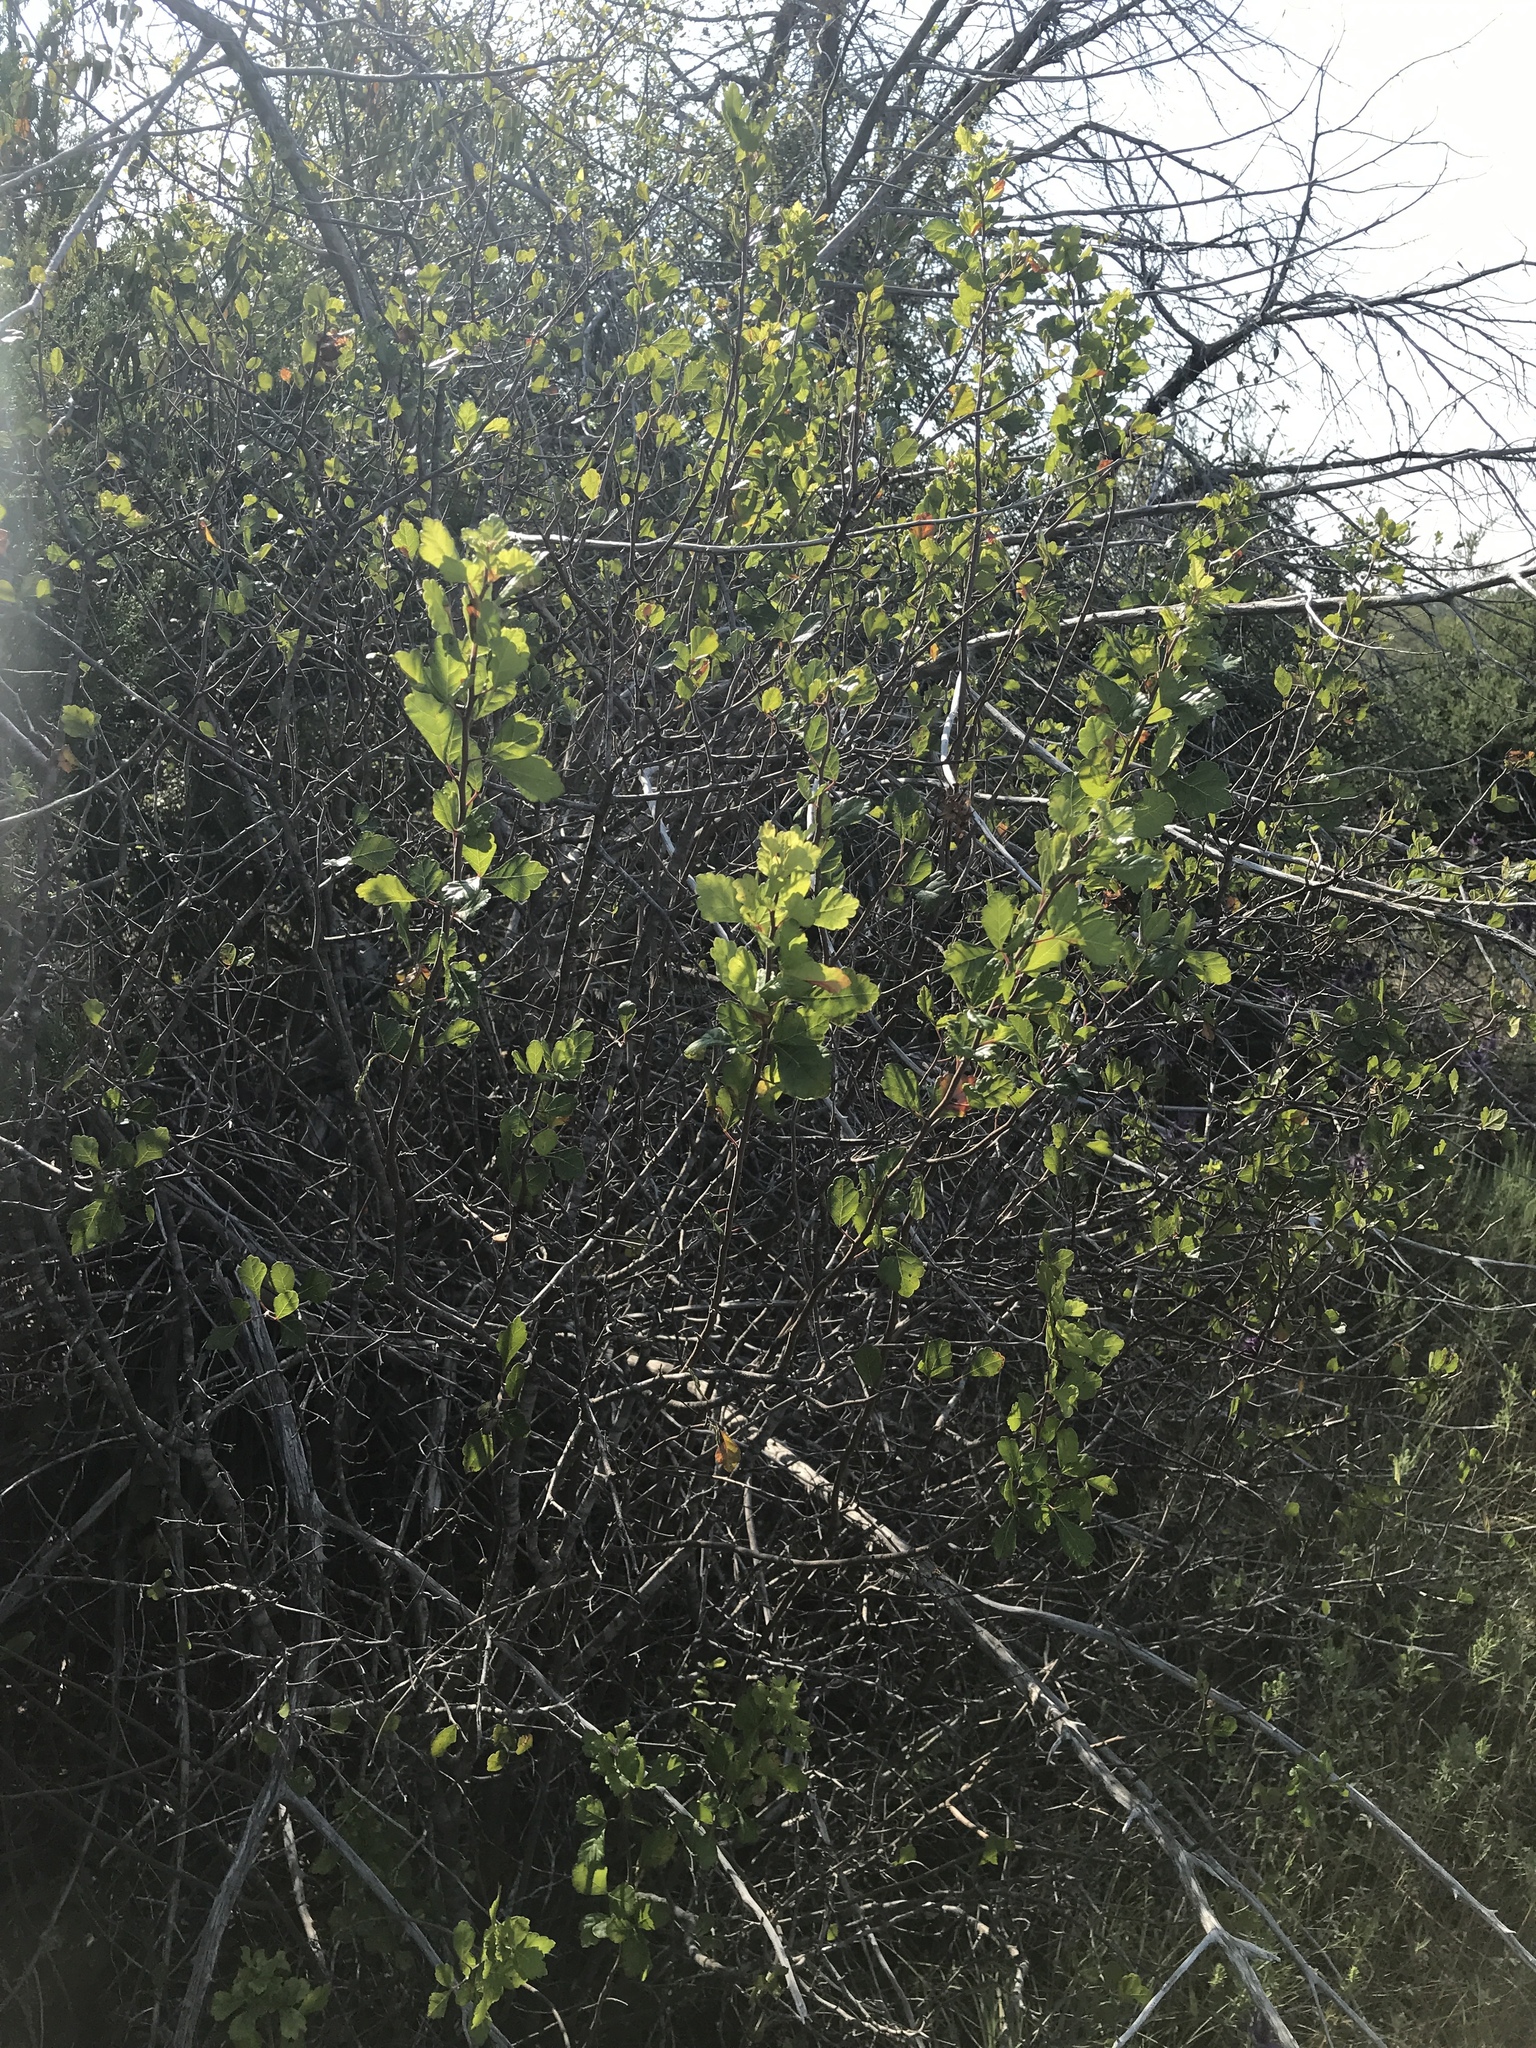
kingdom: Plantae
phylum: Tracheophyta
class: Magnoliopsida
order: Sapindales
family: Anacardiaceae
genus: Rhus
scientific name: Rhus aromatica
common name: Aromatic sumac
